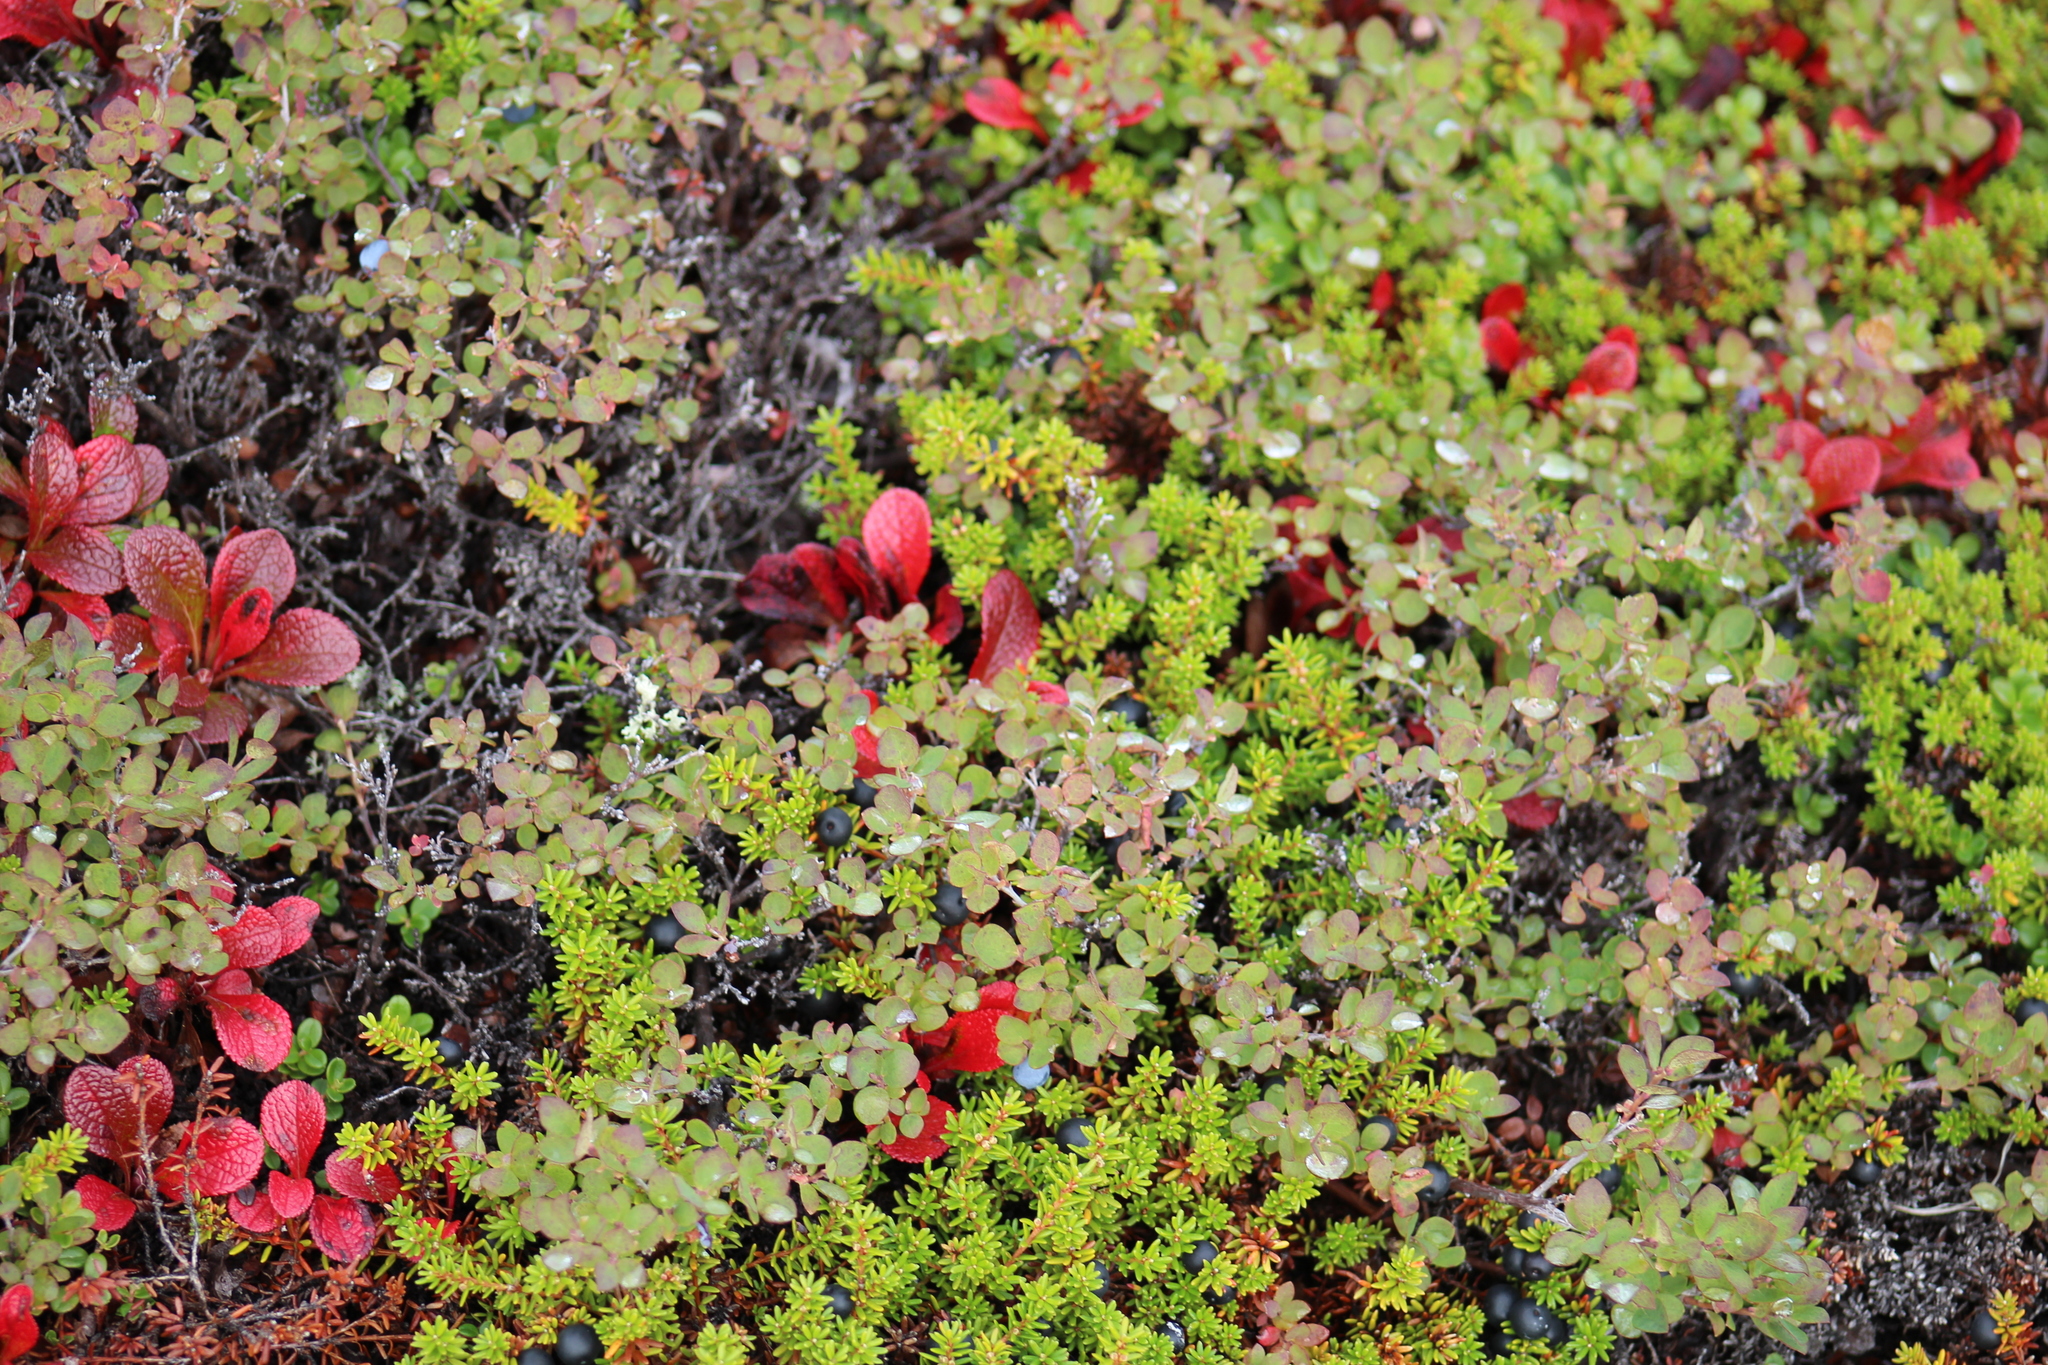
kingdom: Plantae
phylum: Tracheophyta
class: Magnoliopsida
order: Ericales
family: Ericaceae
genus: Vaccinium
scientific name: Vaccinium uliginosum
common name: Bog bilberry
